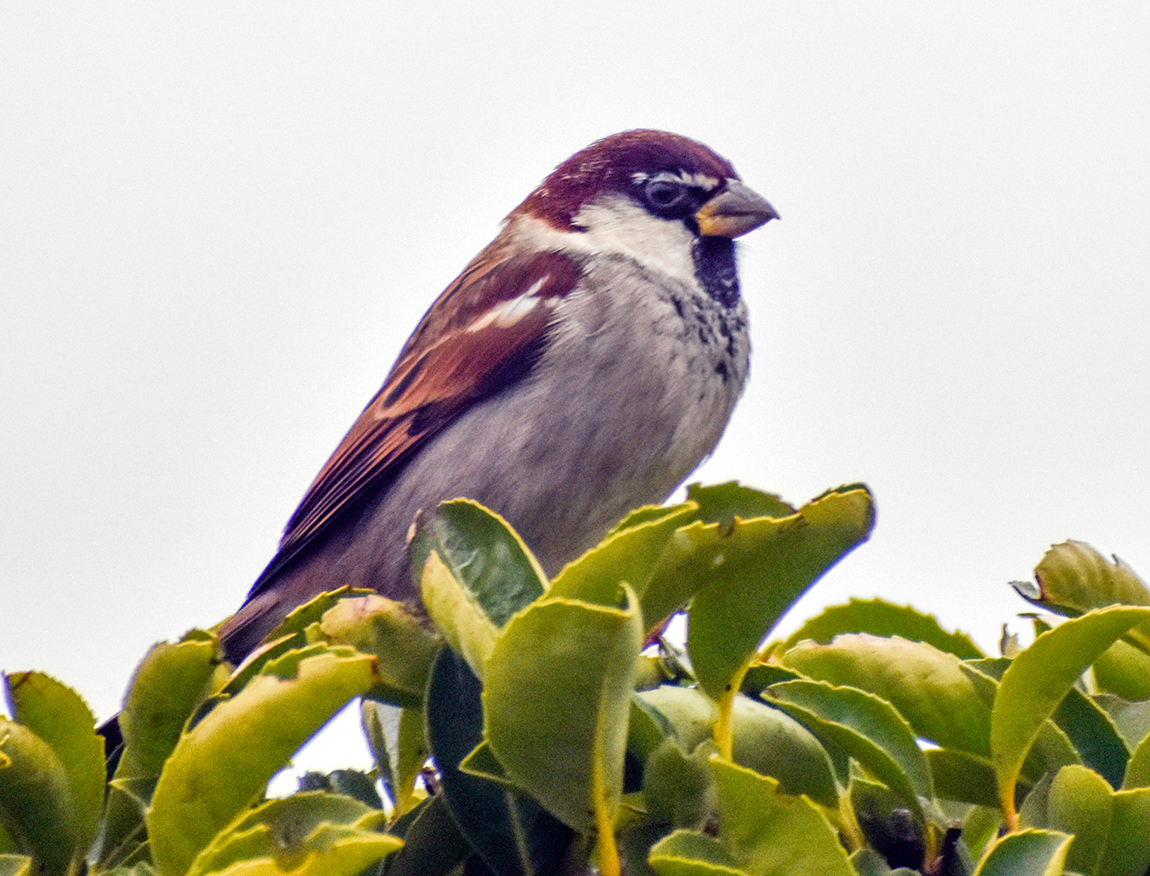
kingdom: Animalia
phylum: Chordata
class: Aves
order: Passeriformes
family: Passeridae
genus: Passer
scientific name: Passer italiae
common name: Italian sparrow
